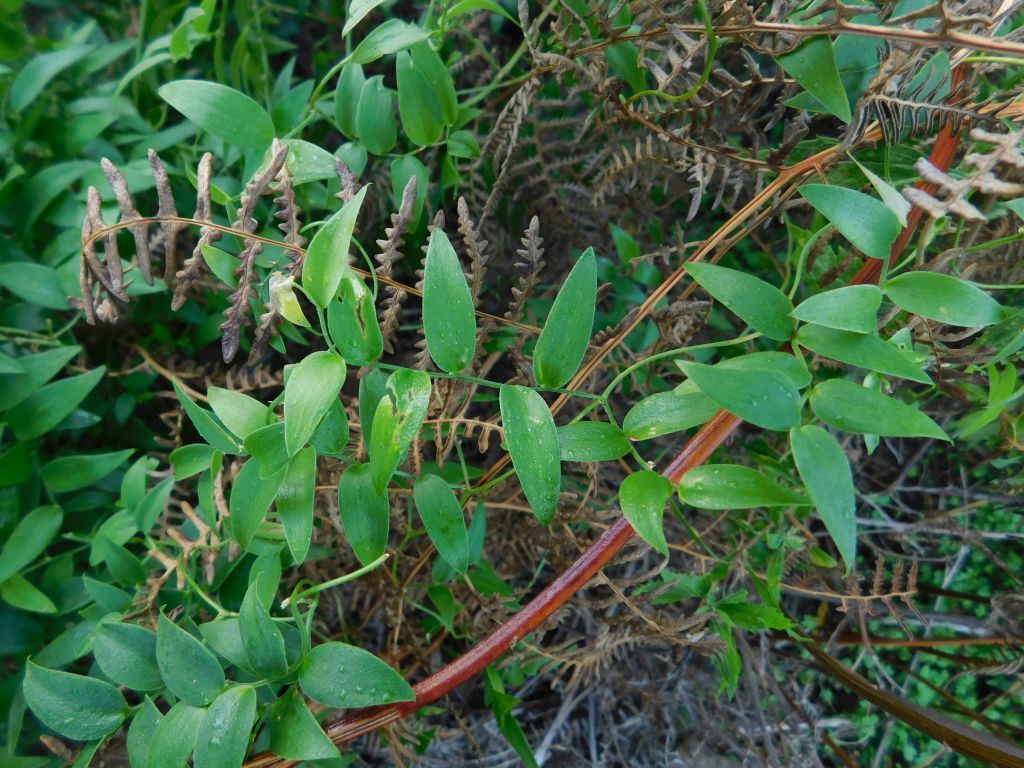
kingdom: Plantae
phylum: Tracheophyta
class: Liliopsida
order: Asparagales
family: Asparagaceae
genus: Asparagus
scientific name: Asparagus asparagoides
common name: African asparagus fern
